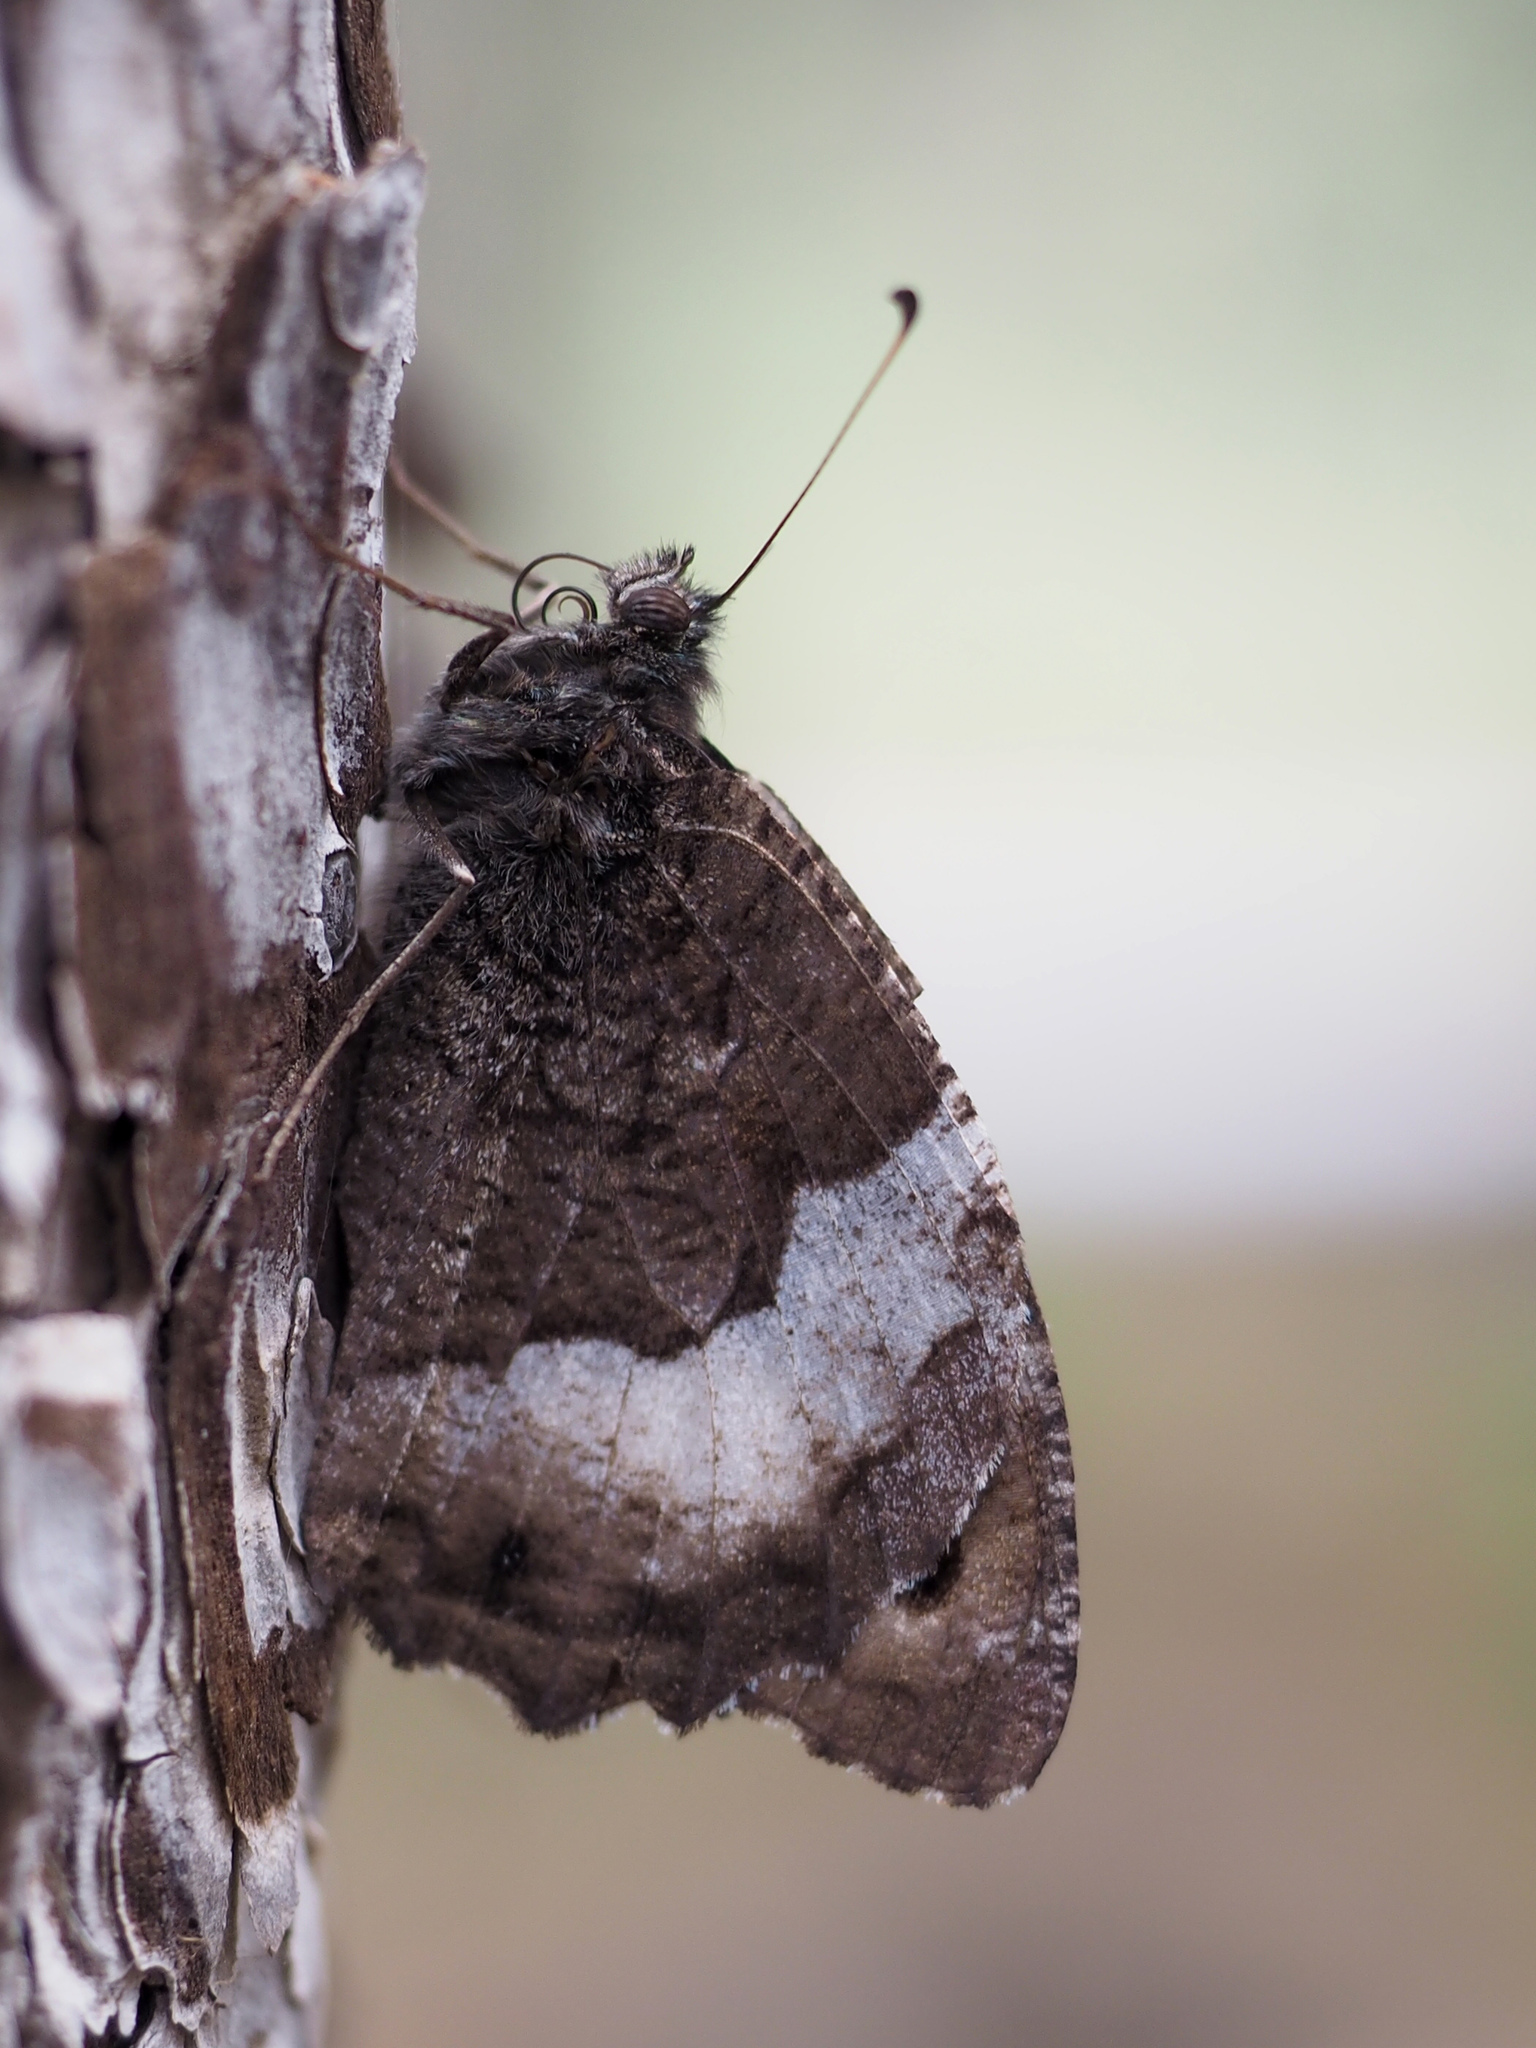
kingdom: Animalia
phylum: Arthropoda
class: Insecta
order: Lepidoptera
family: Nymphalidae
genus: Hipparchia
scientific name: Hipparchia fagi
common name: Woodland grayling
